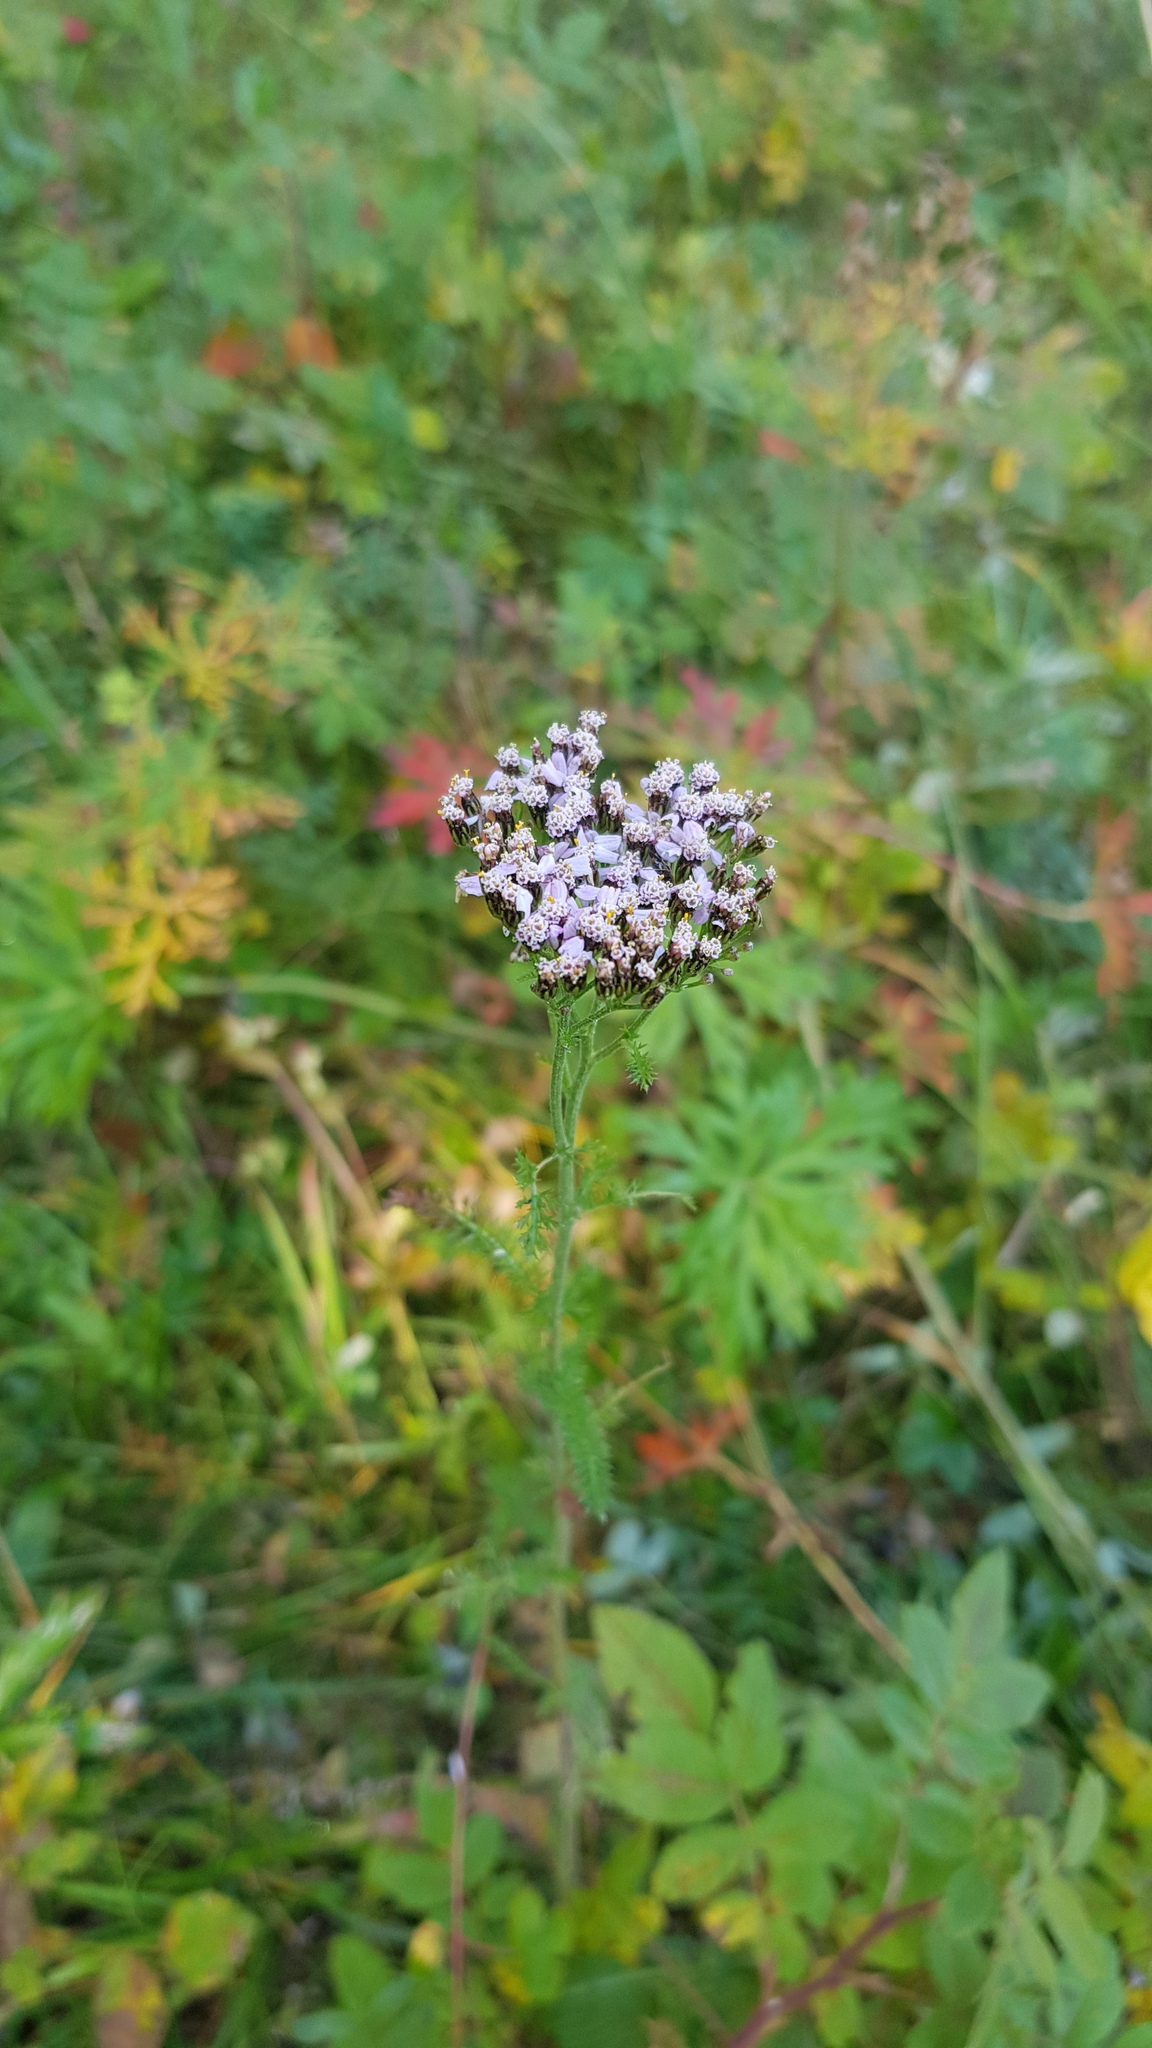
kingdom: Plantae
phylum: Tracheophyta
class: Magnoliopsida
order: Asterales
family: Asteraceae
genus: Achillea
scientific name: Achillea asiatica
